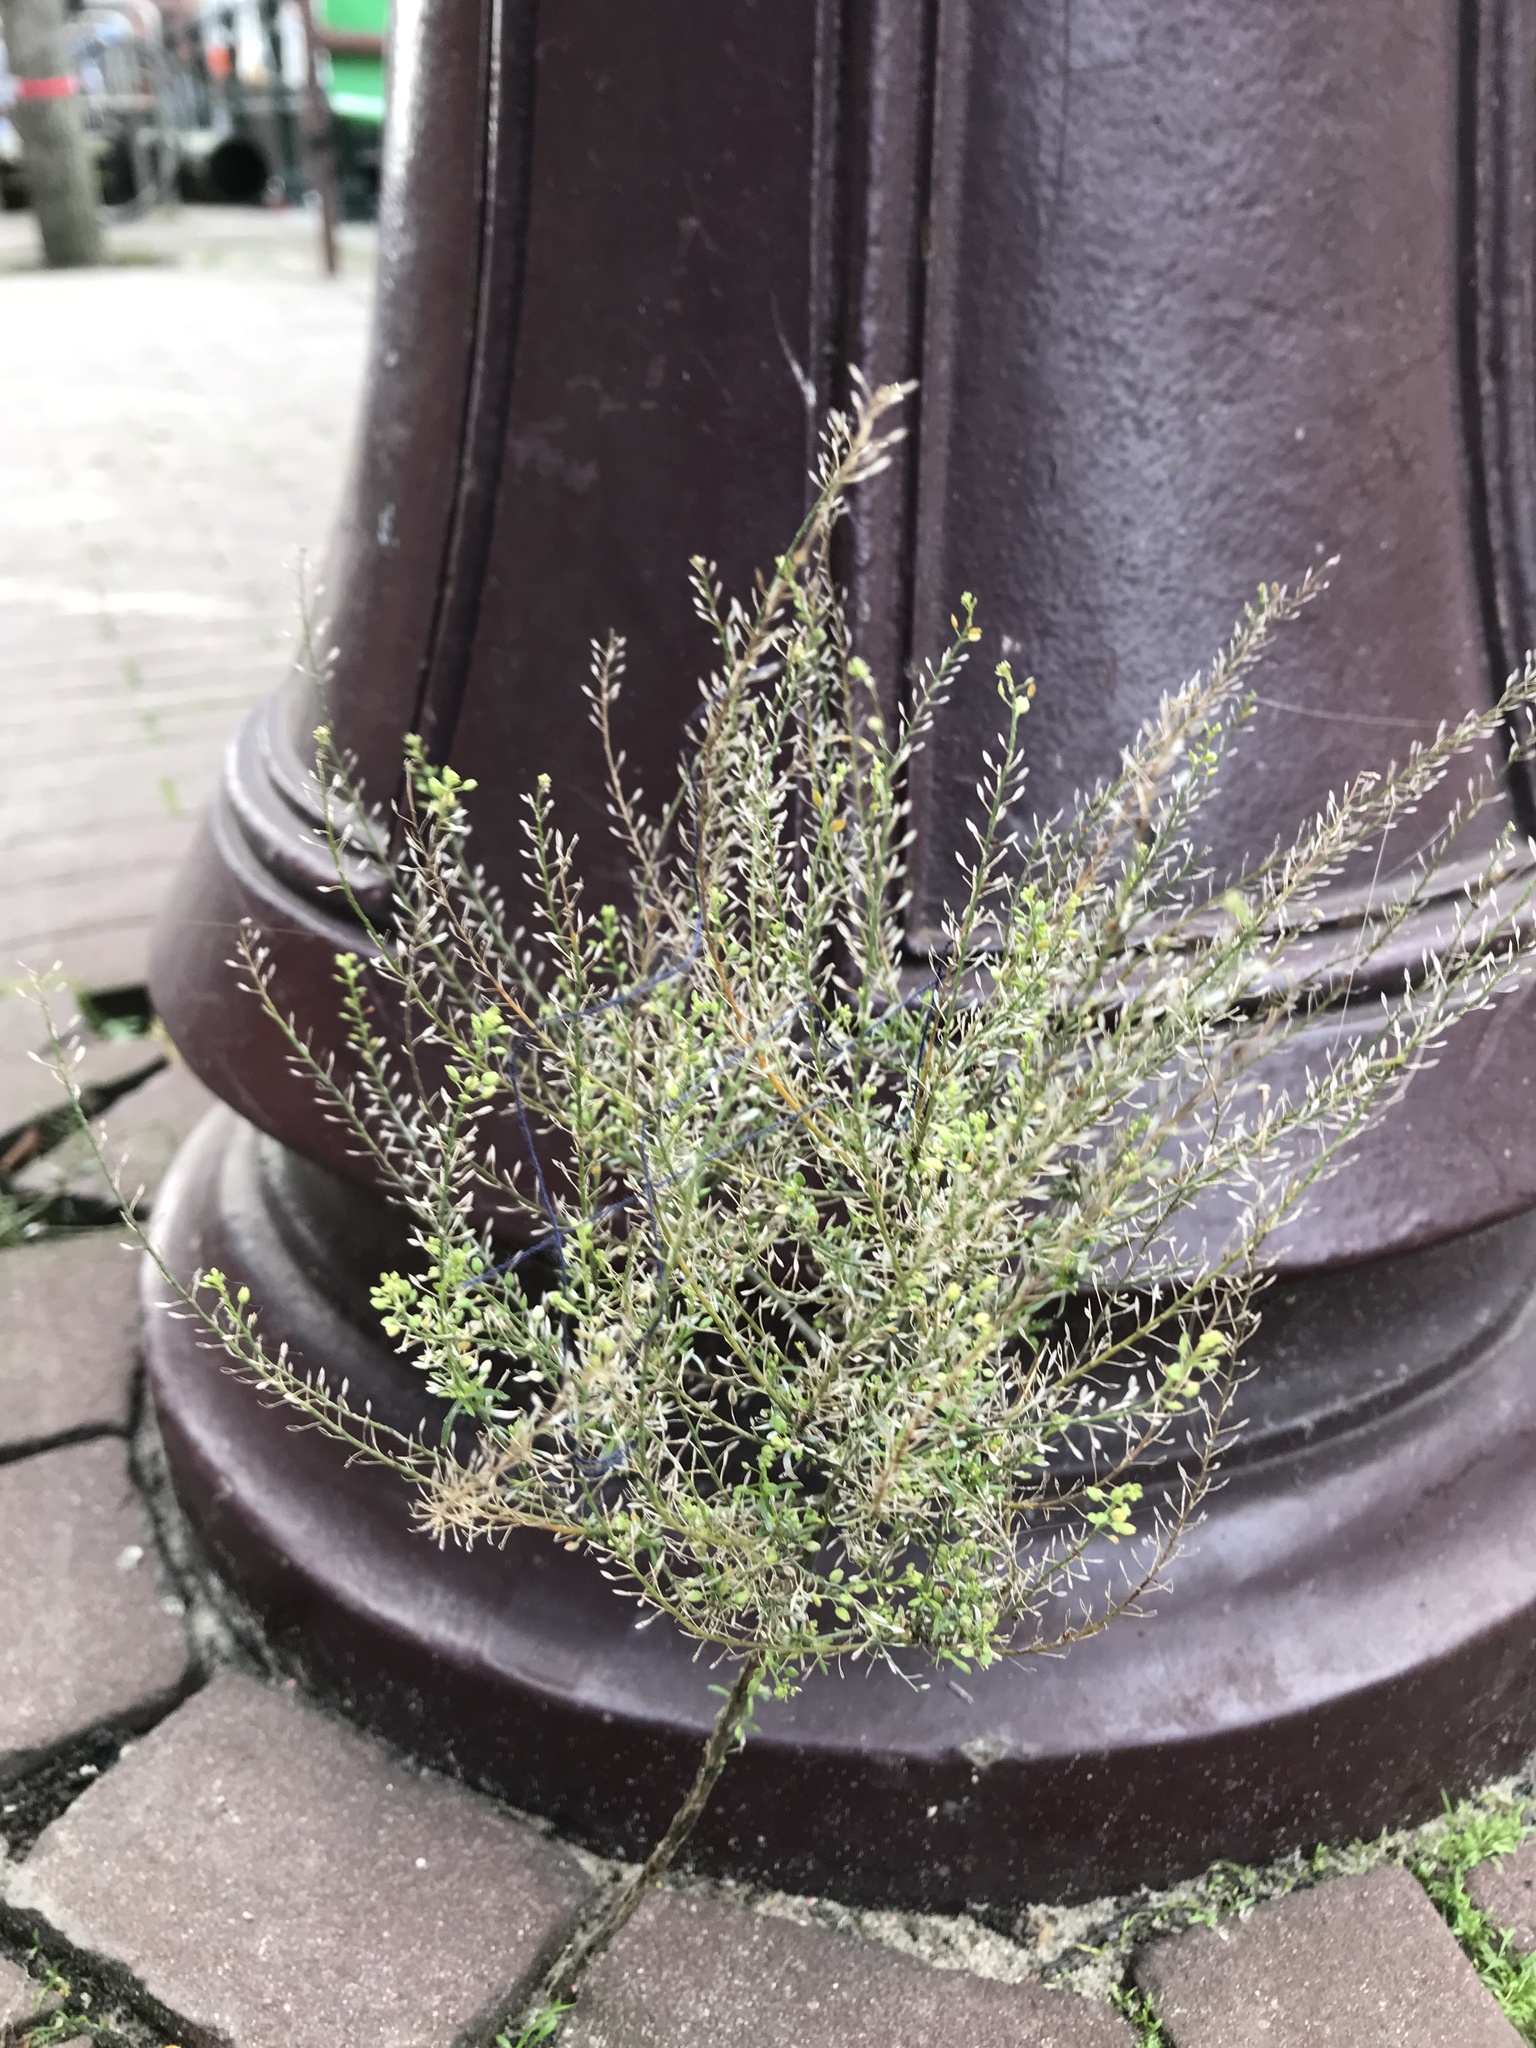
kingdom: Plantae
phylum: Tracheophyta
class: Magnoliopsida
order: Brassicales
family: Brassicaceae
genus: Lepidium
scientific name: Lepidium virginicum
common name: Least pepperwort
